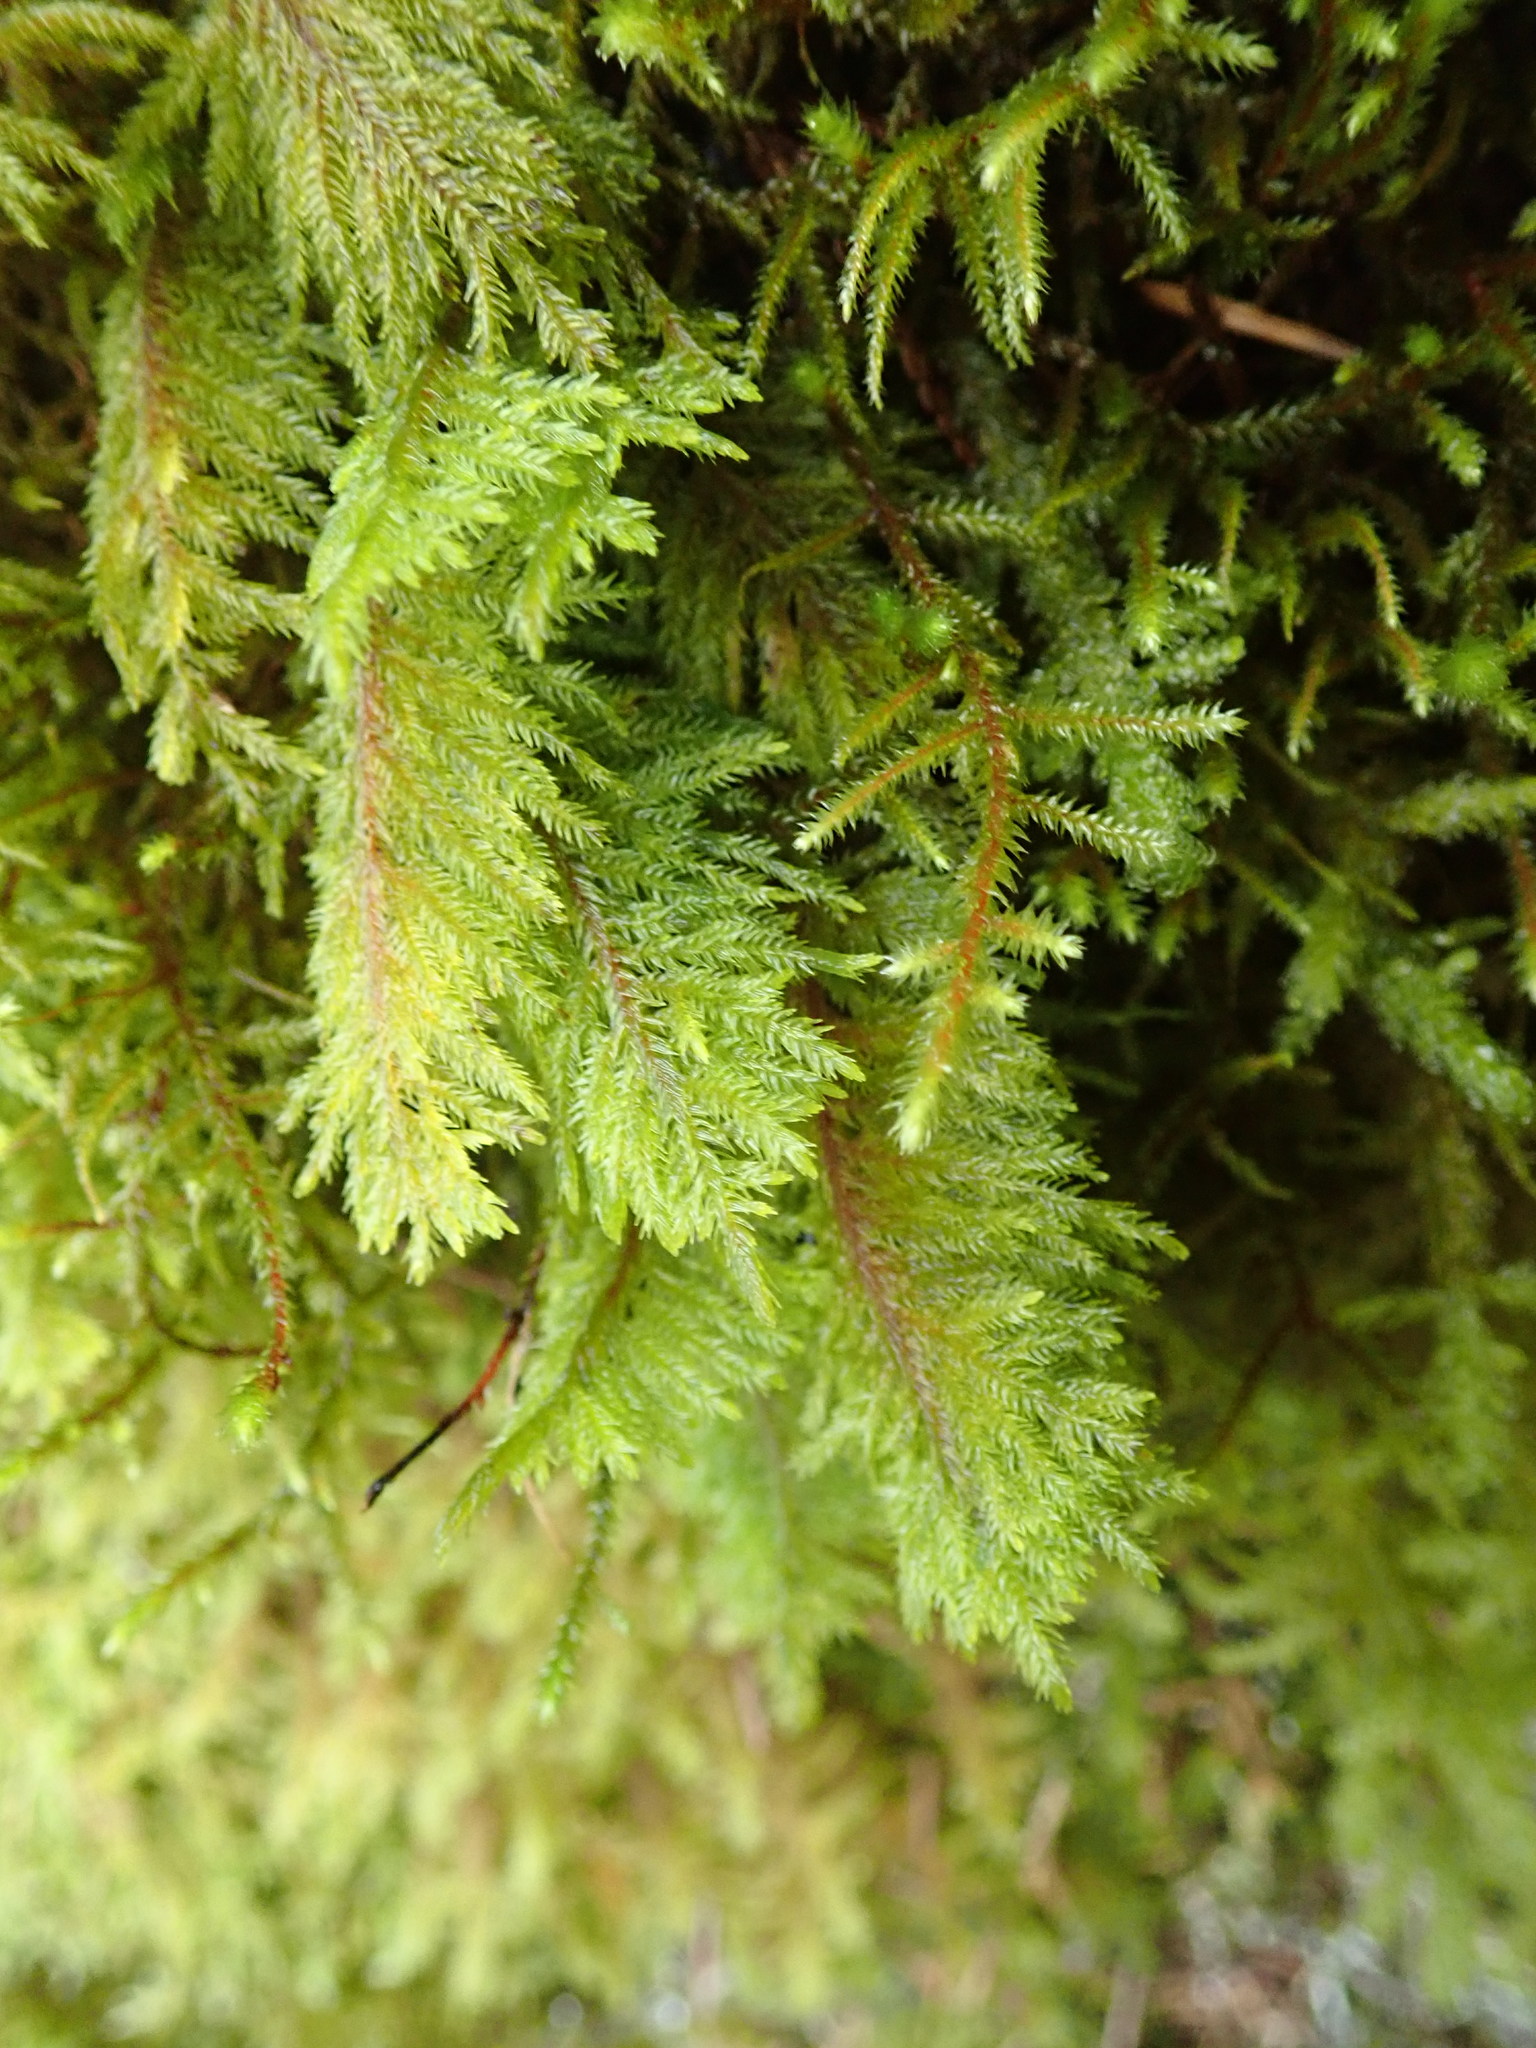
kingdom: Plantae
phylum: Bryophyta
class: Bryopsida
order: Hypnales
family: Cryphaeaceae
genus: Dendroalsia
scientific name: Dendroalsia abietina
